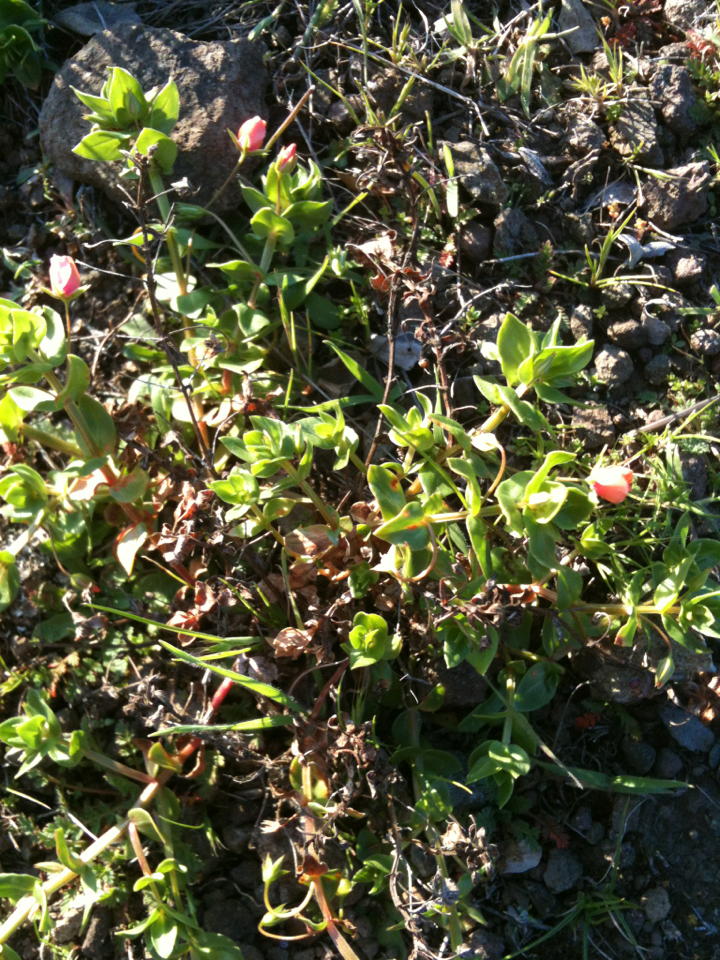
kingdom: Plantae
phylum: Tracheophyta
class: Magnoliopsida
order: Ericales
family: Primulaceae
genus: Lysimachia
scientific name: Lysimachia arvensis
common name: Scarlet pimpernel
